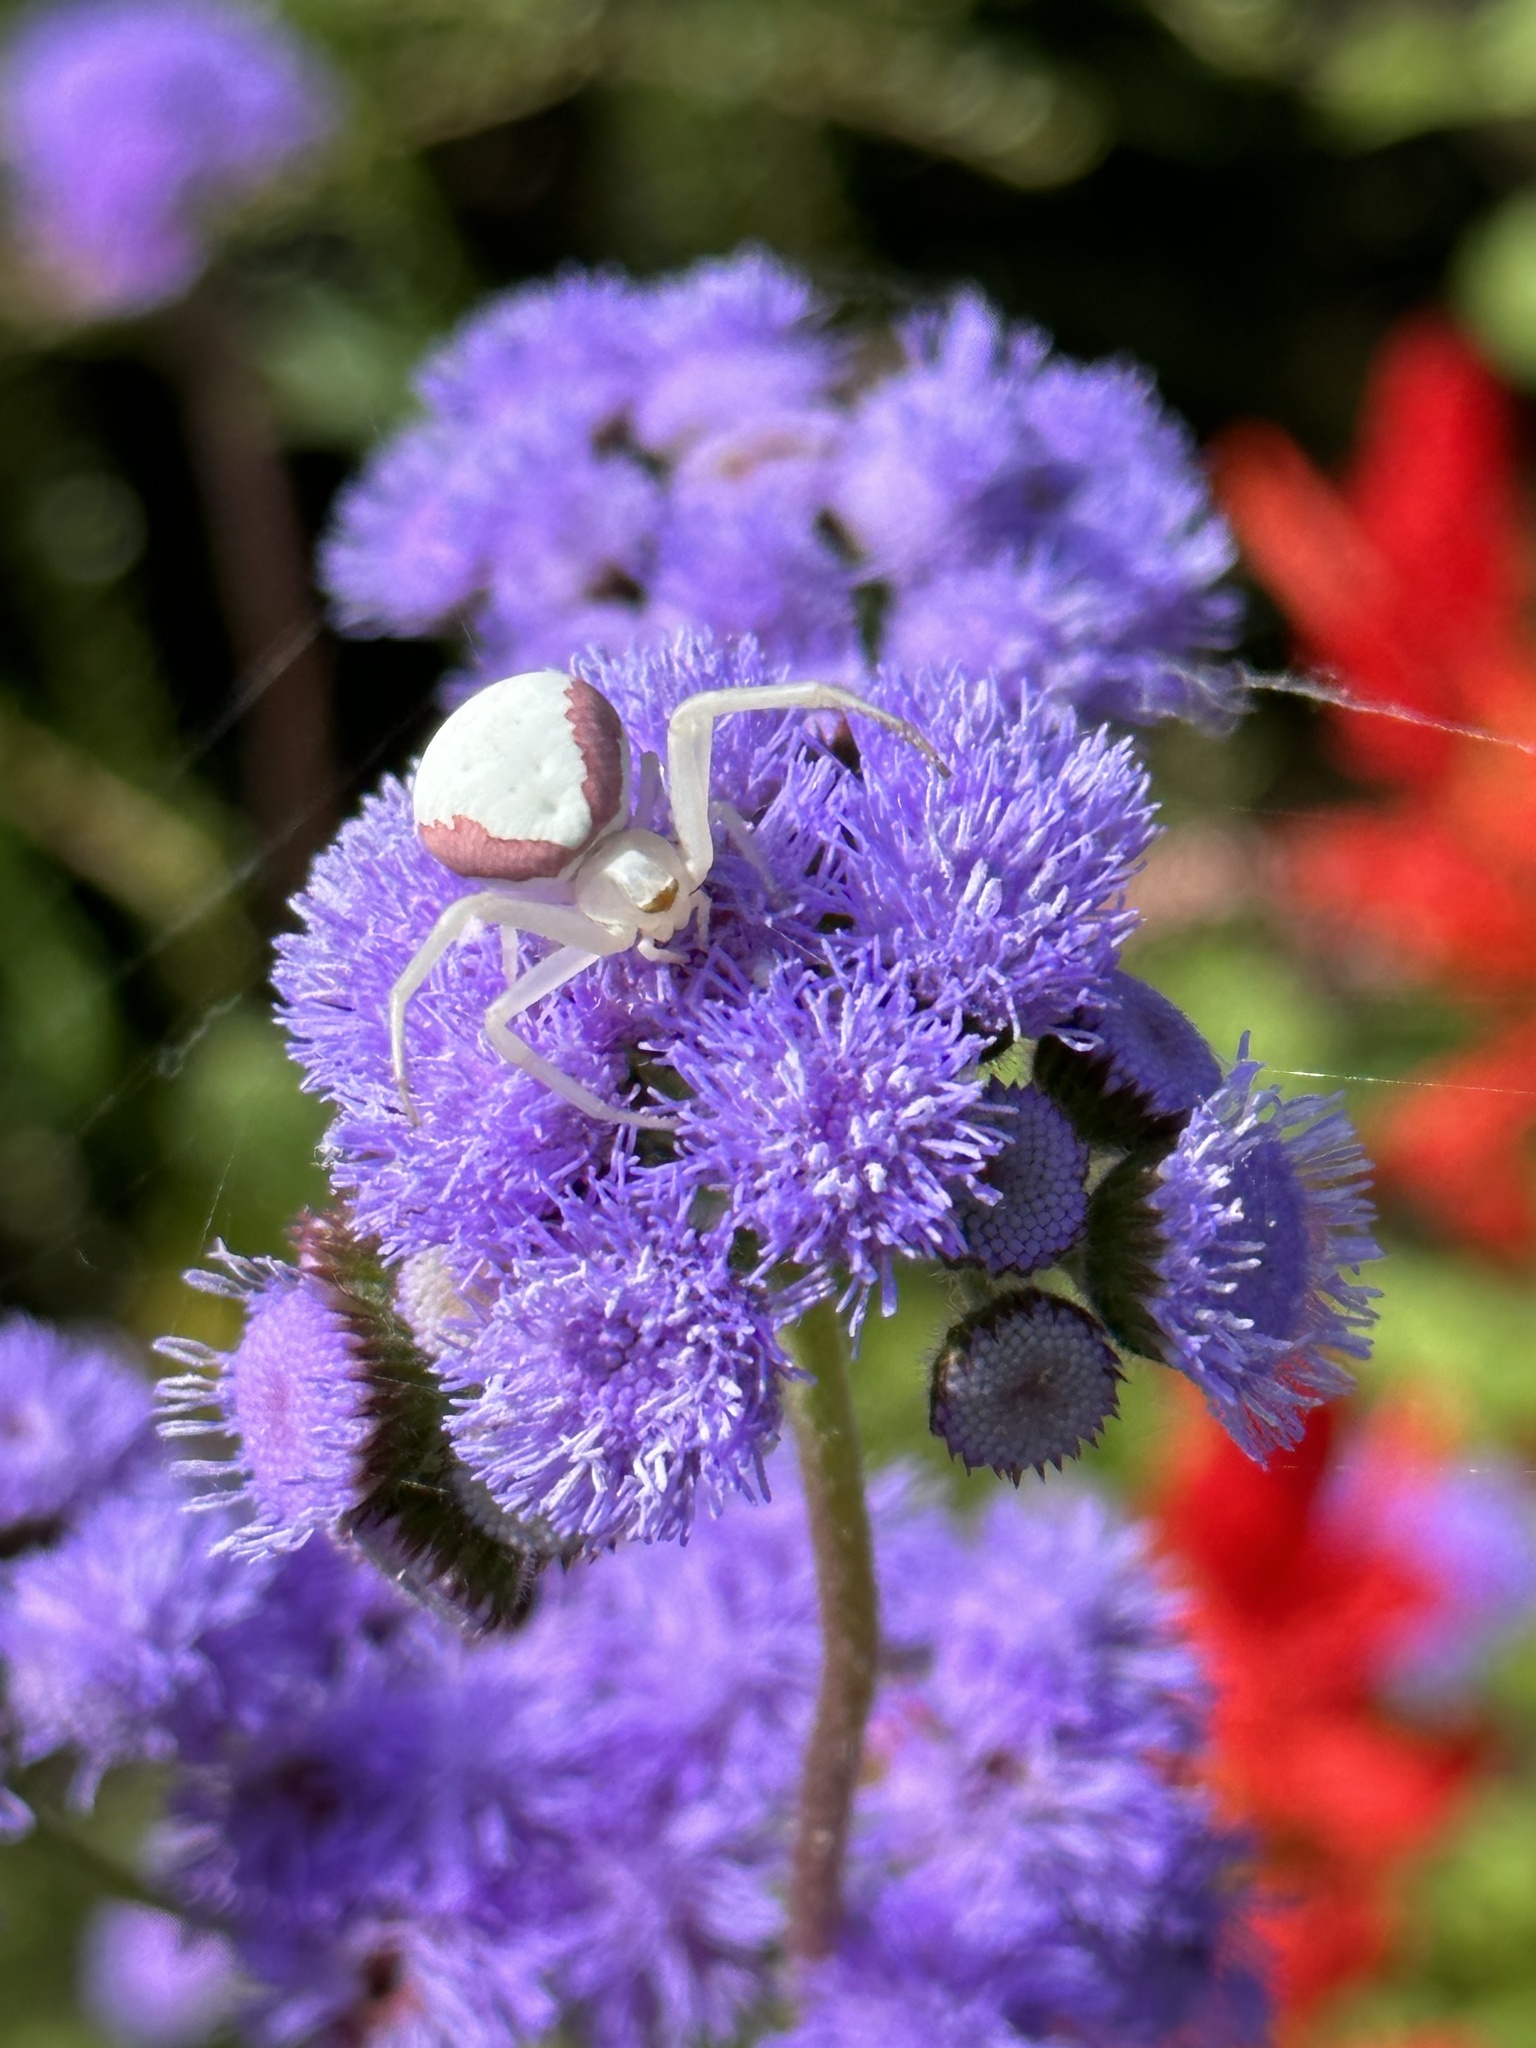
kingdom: Animalia
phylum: Arthropoda
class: Arachnida
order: Araneae
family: Thomisidae
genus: Misumena
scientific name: Misumena vatia
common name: Goldenrod crab spider
